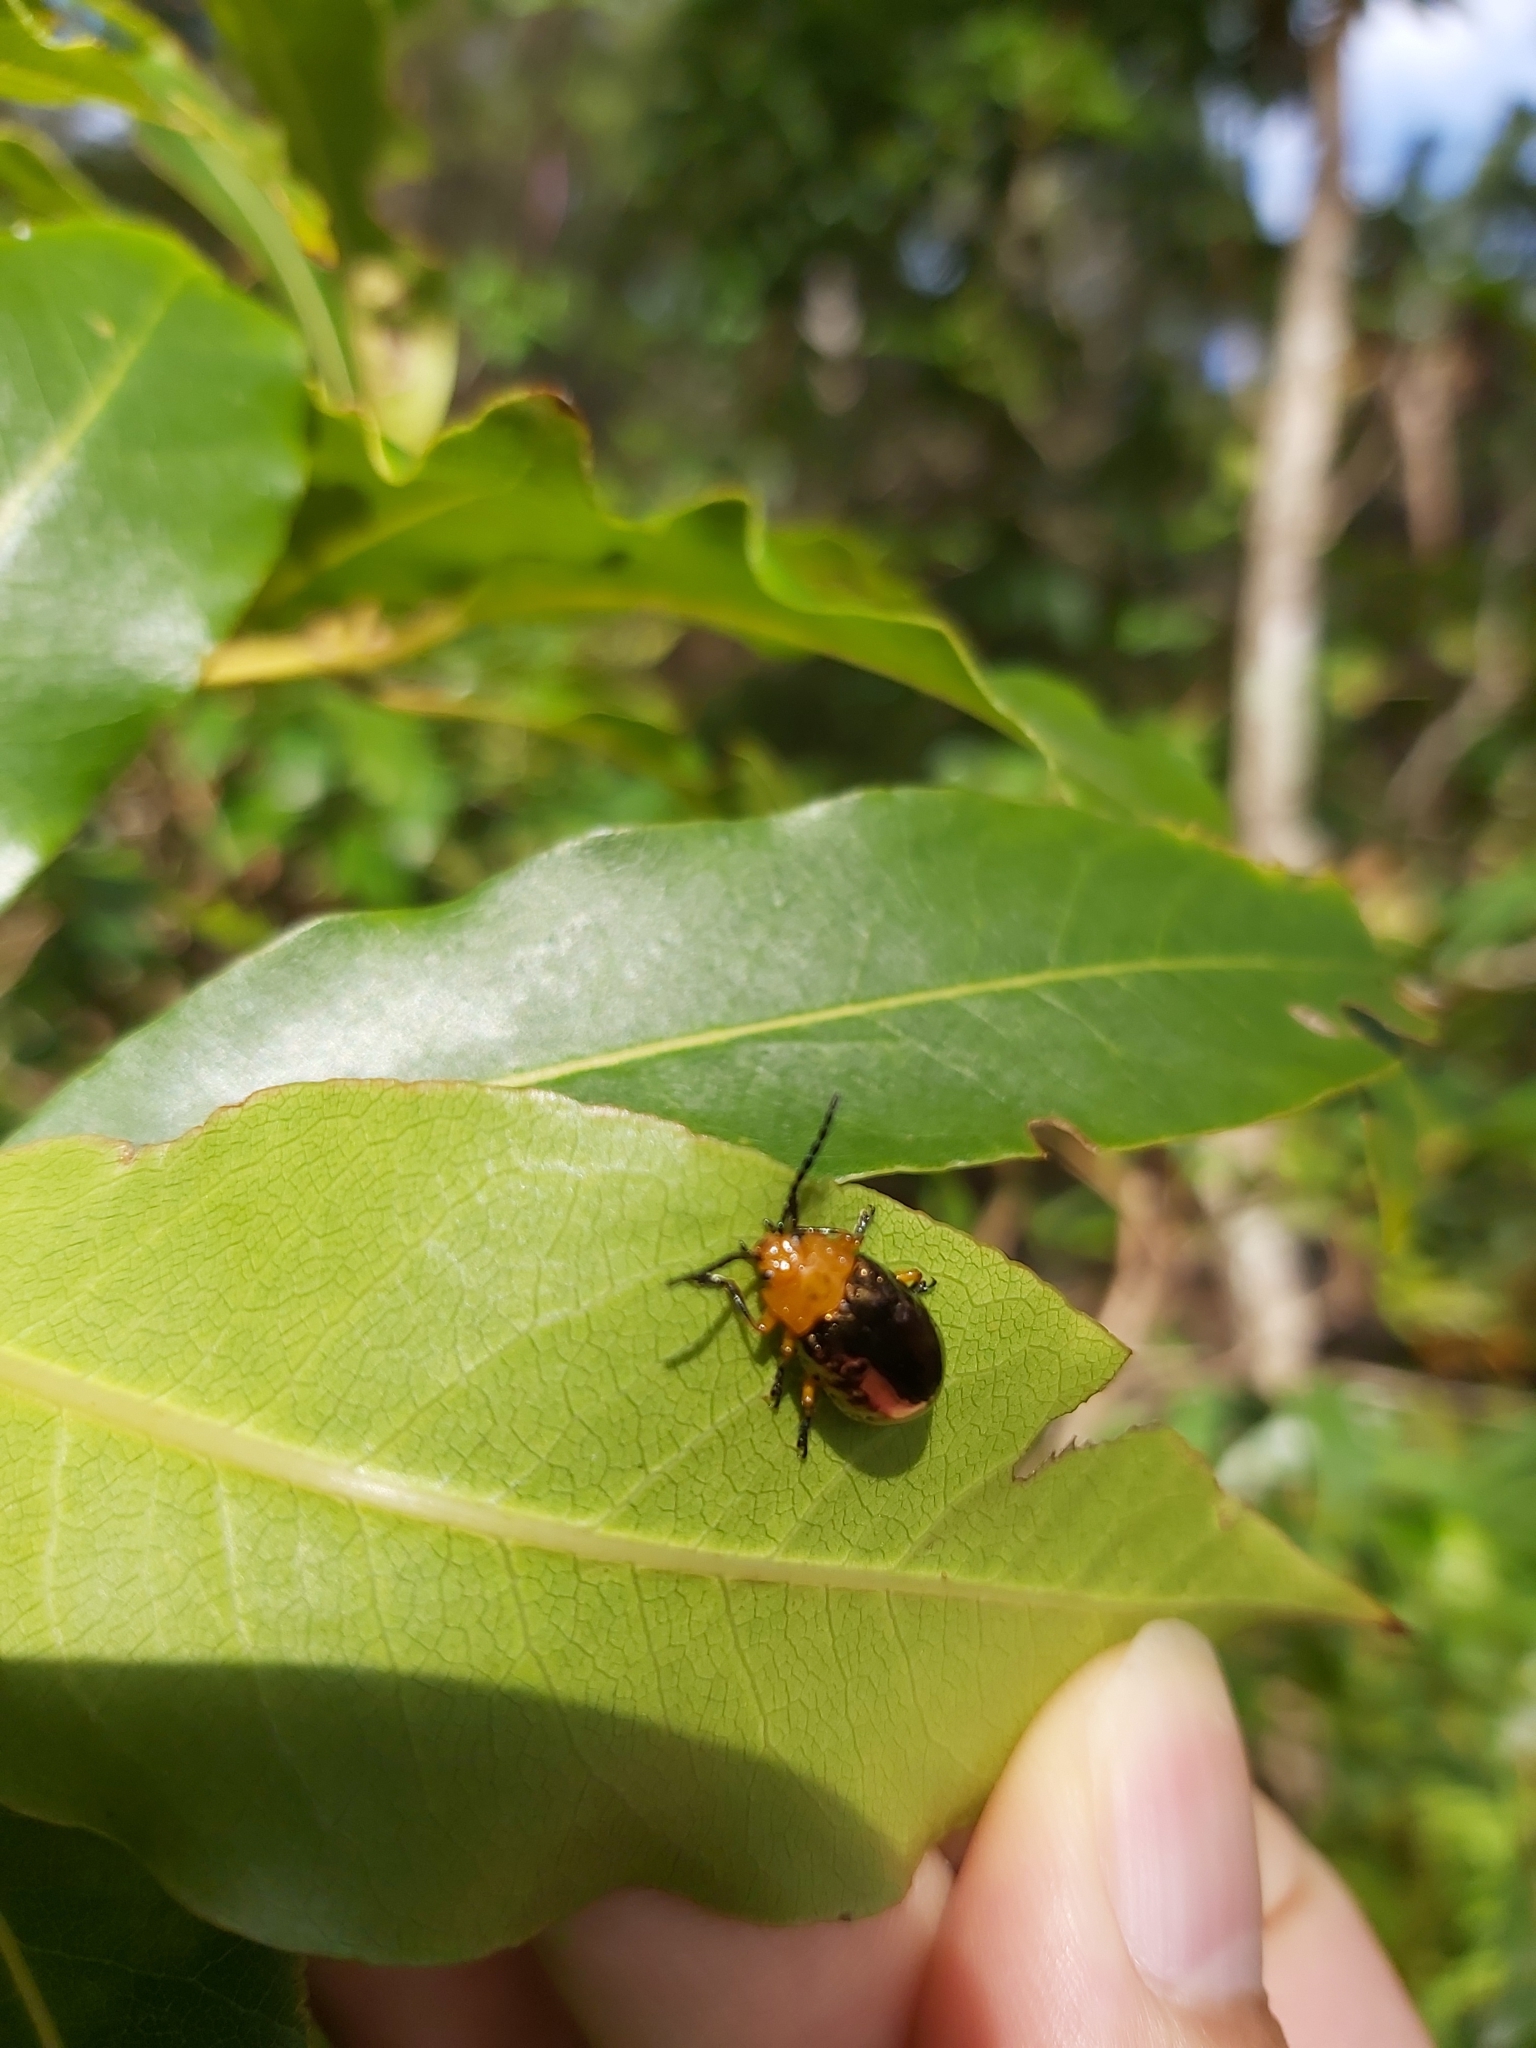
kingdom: Animalia
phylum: Arthropoda
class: Insecta
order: Coleoptera
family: Chrysomelidae
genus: Lamprolina
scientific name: Lamprolina
